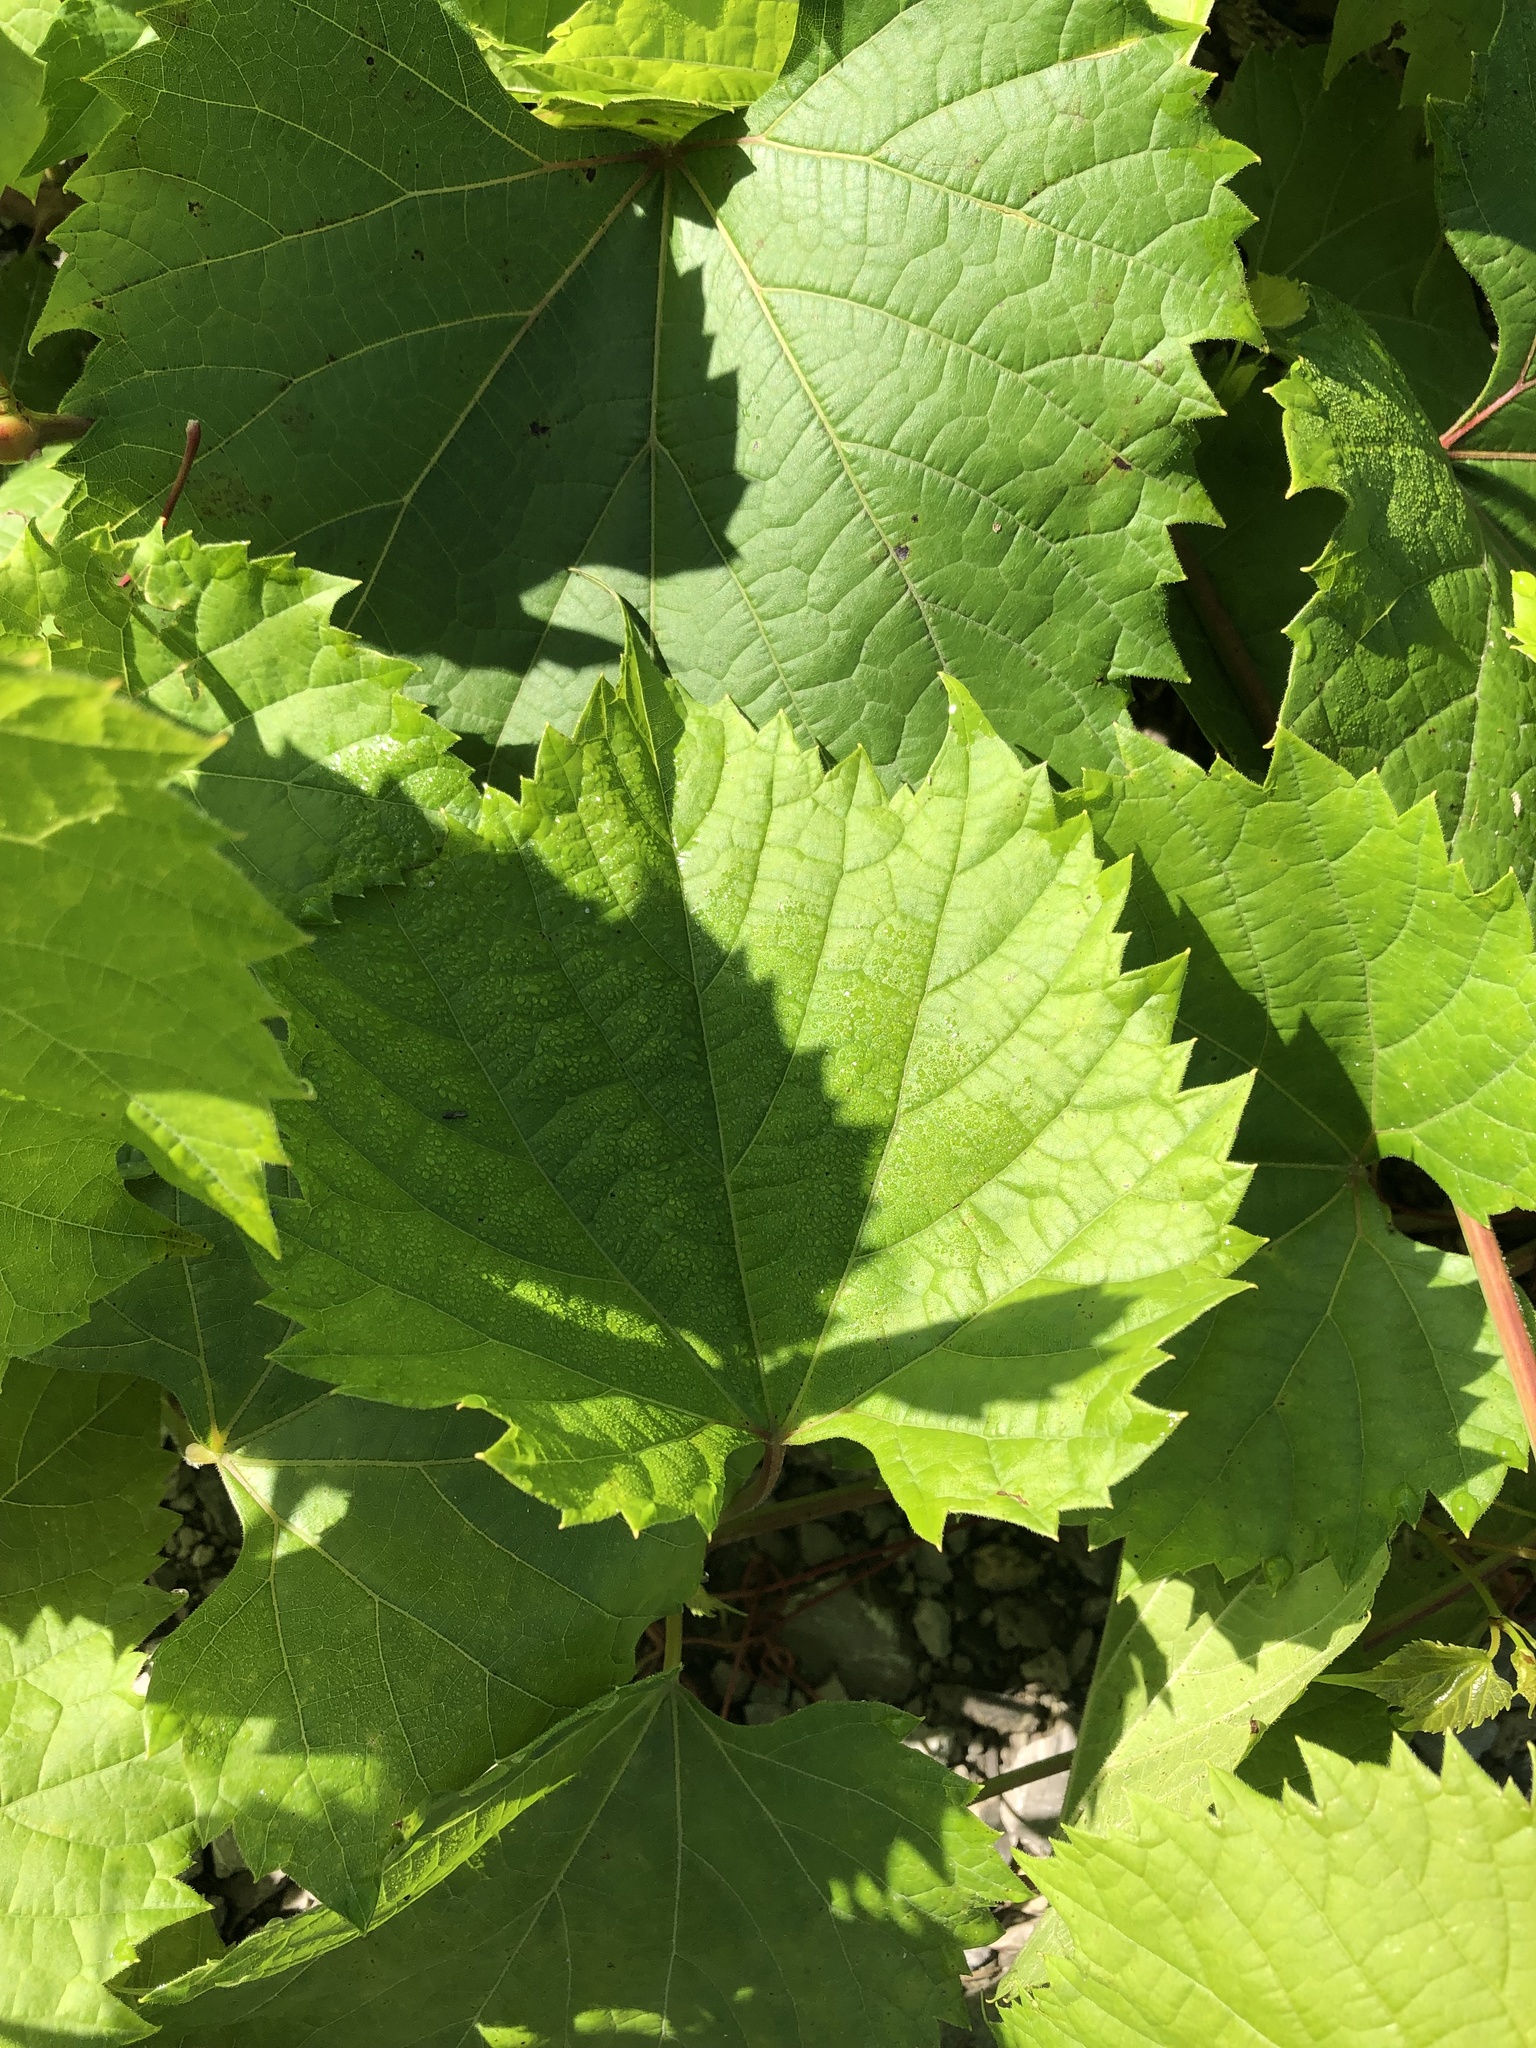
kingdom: Plantae
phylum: Tracheophyta
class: Magnoliopsida
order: Vitales
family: Vitaceae
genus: Vitis
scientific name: Vitis riparia
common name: Frost grape
